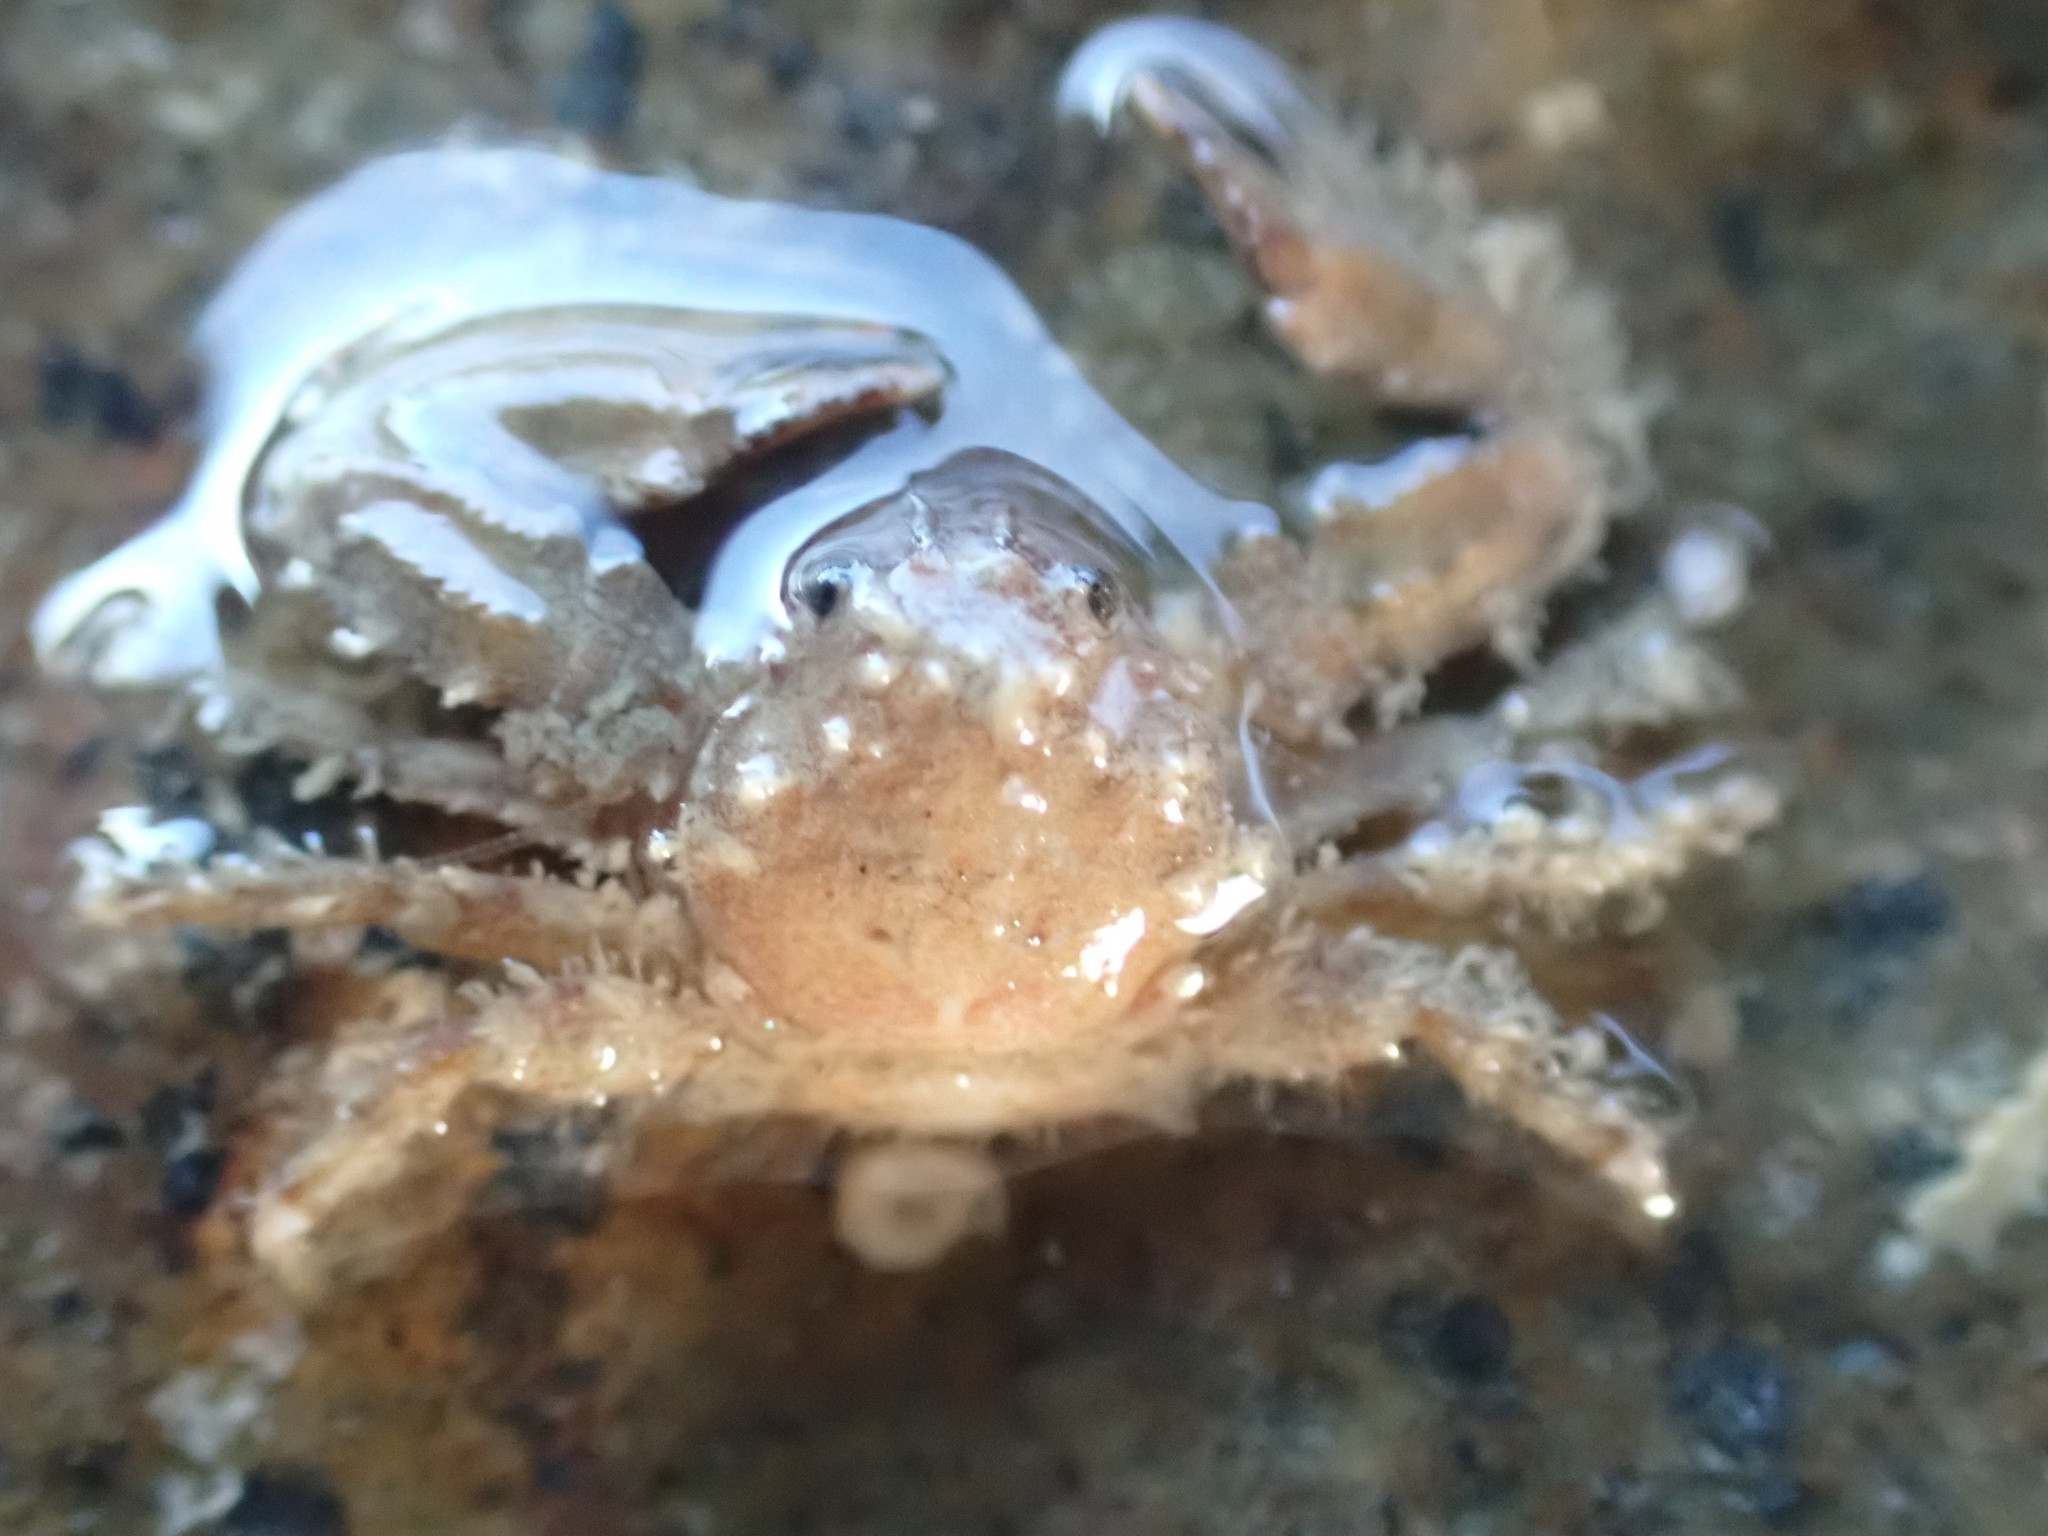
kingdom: Animalia
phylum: Arthropoda
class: Malacostraca
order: Decapoda
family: Porcellanidae
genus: Petrolisthes
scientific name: Petrolisthes novaezelandiae
